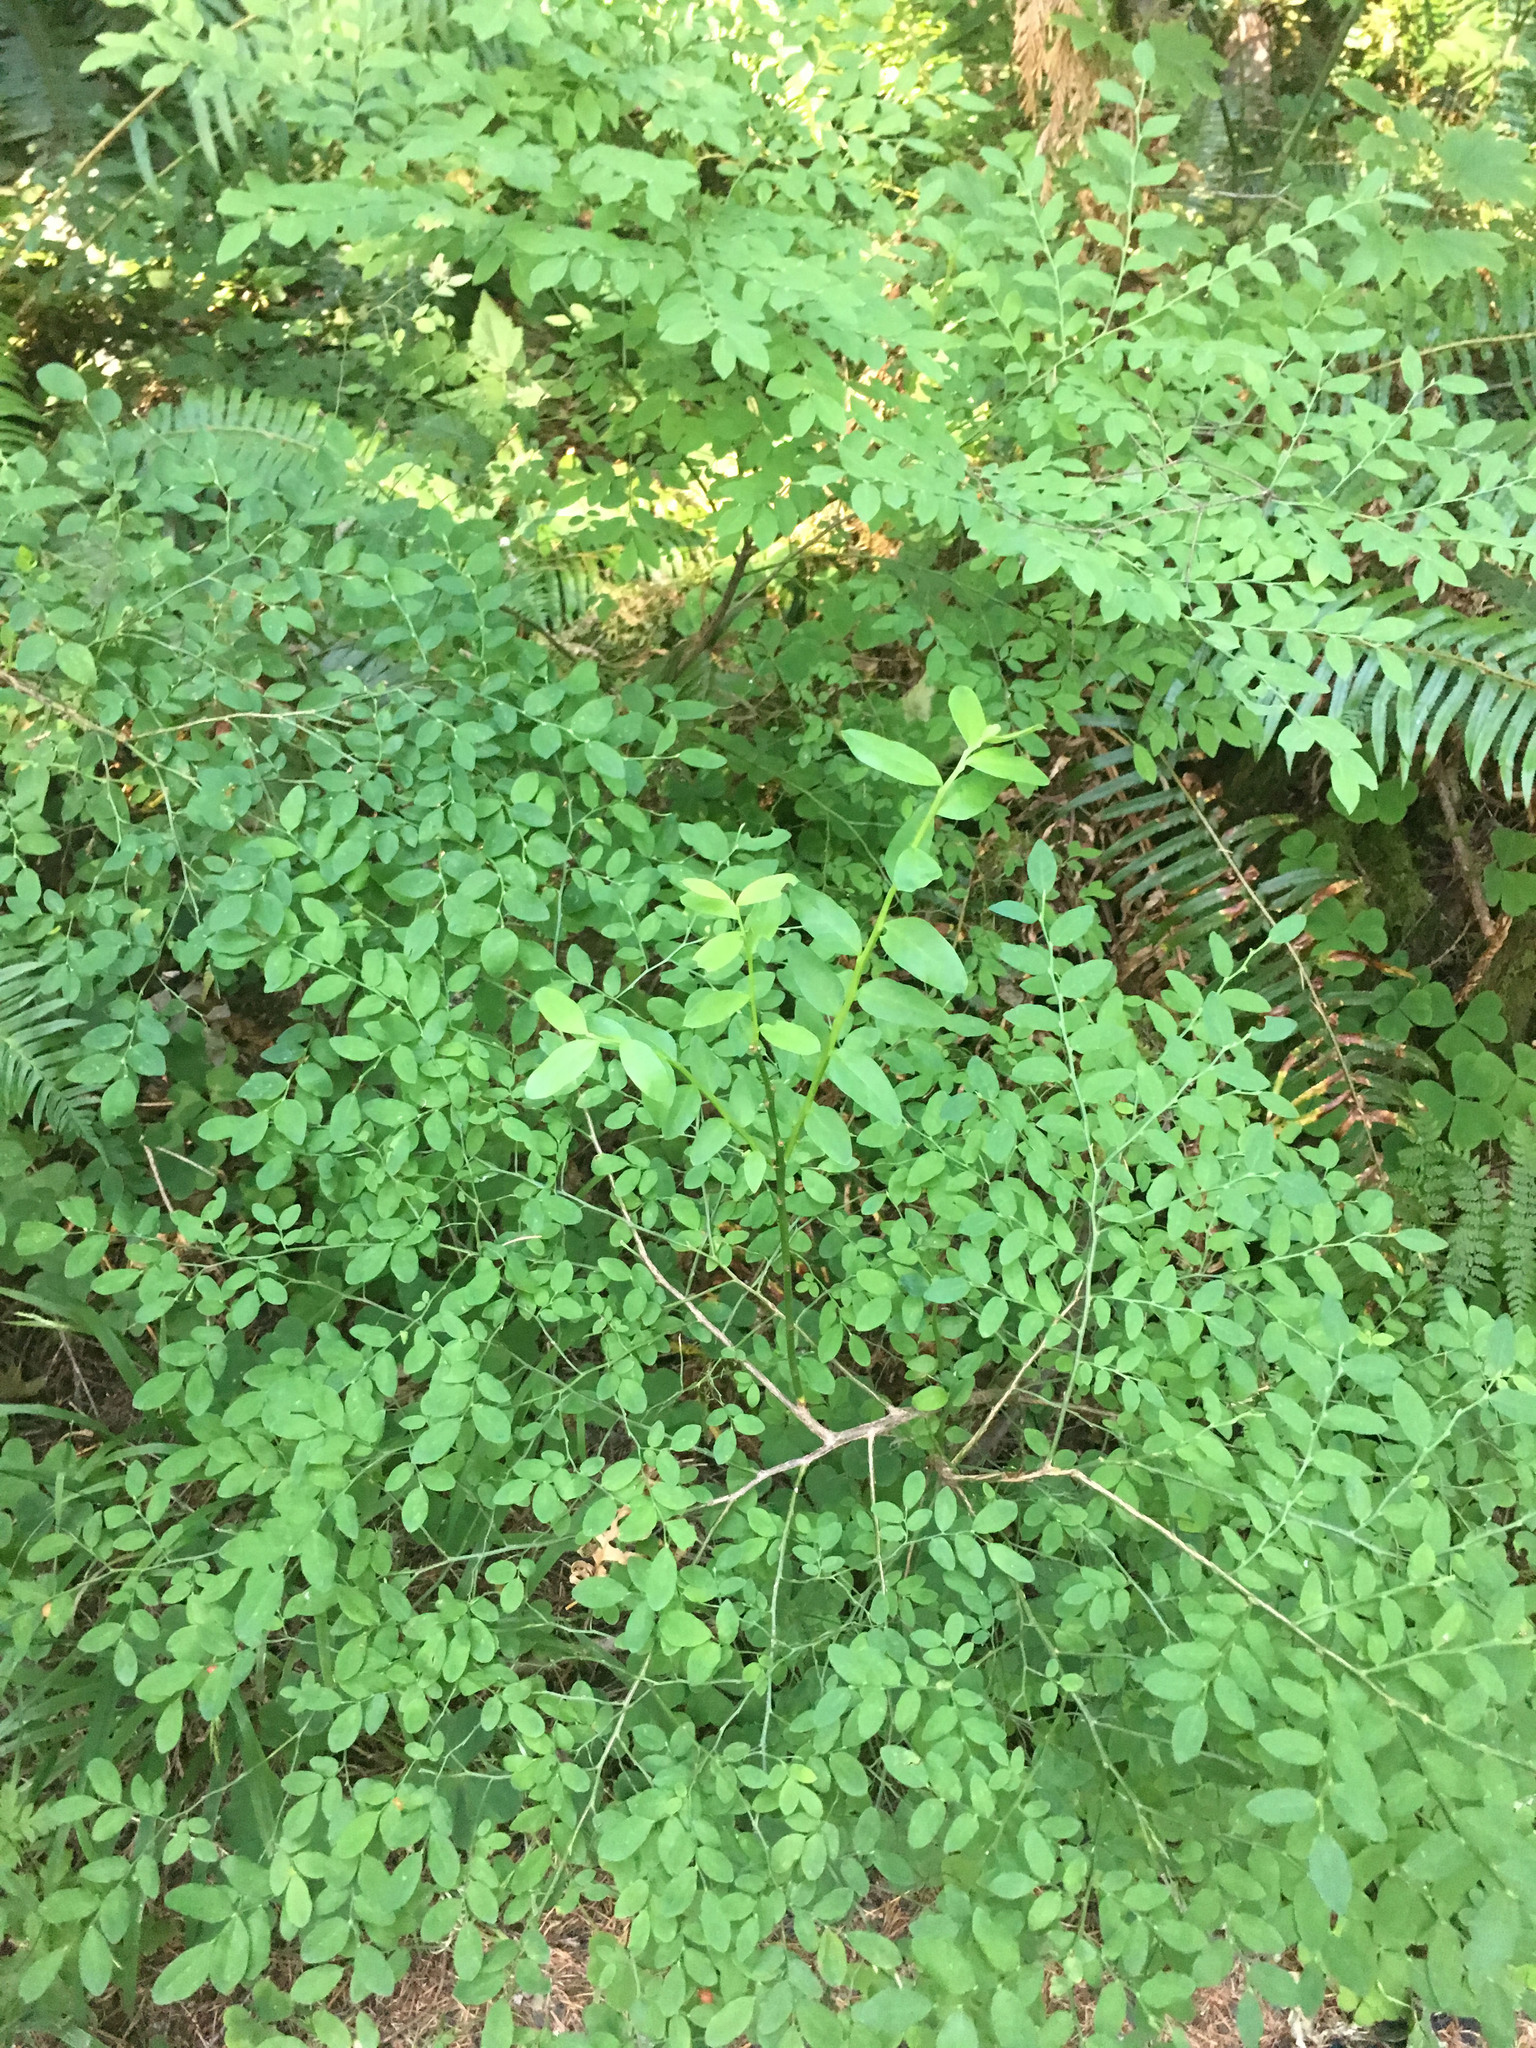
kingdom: Plantae
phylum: Tracheophyta
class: Magnoliopsida
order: Ericales
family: Ericaceae
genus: Vaccinium
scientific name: Vaccinium parvifolium
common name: Red-huckleberry
